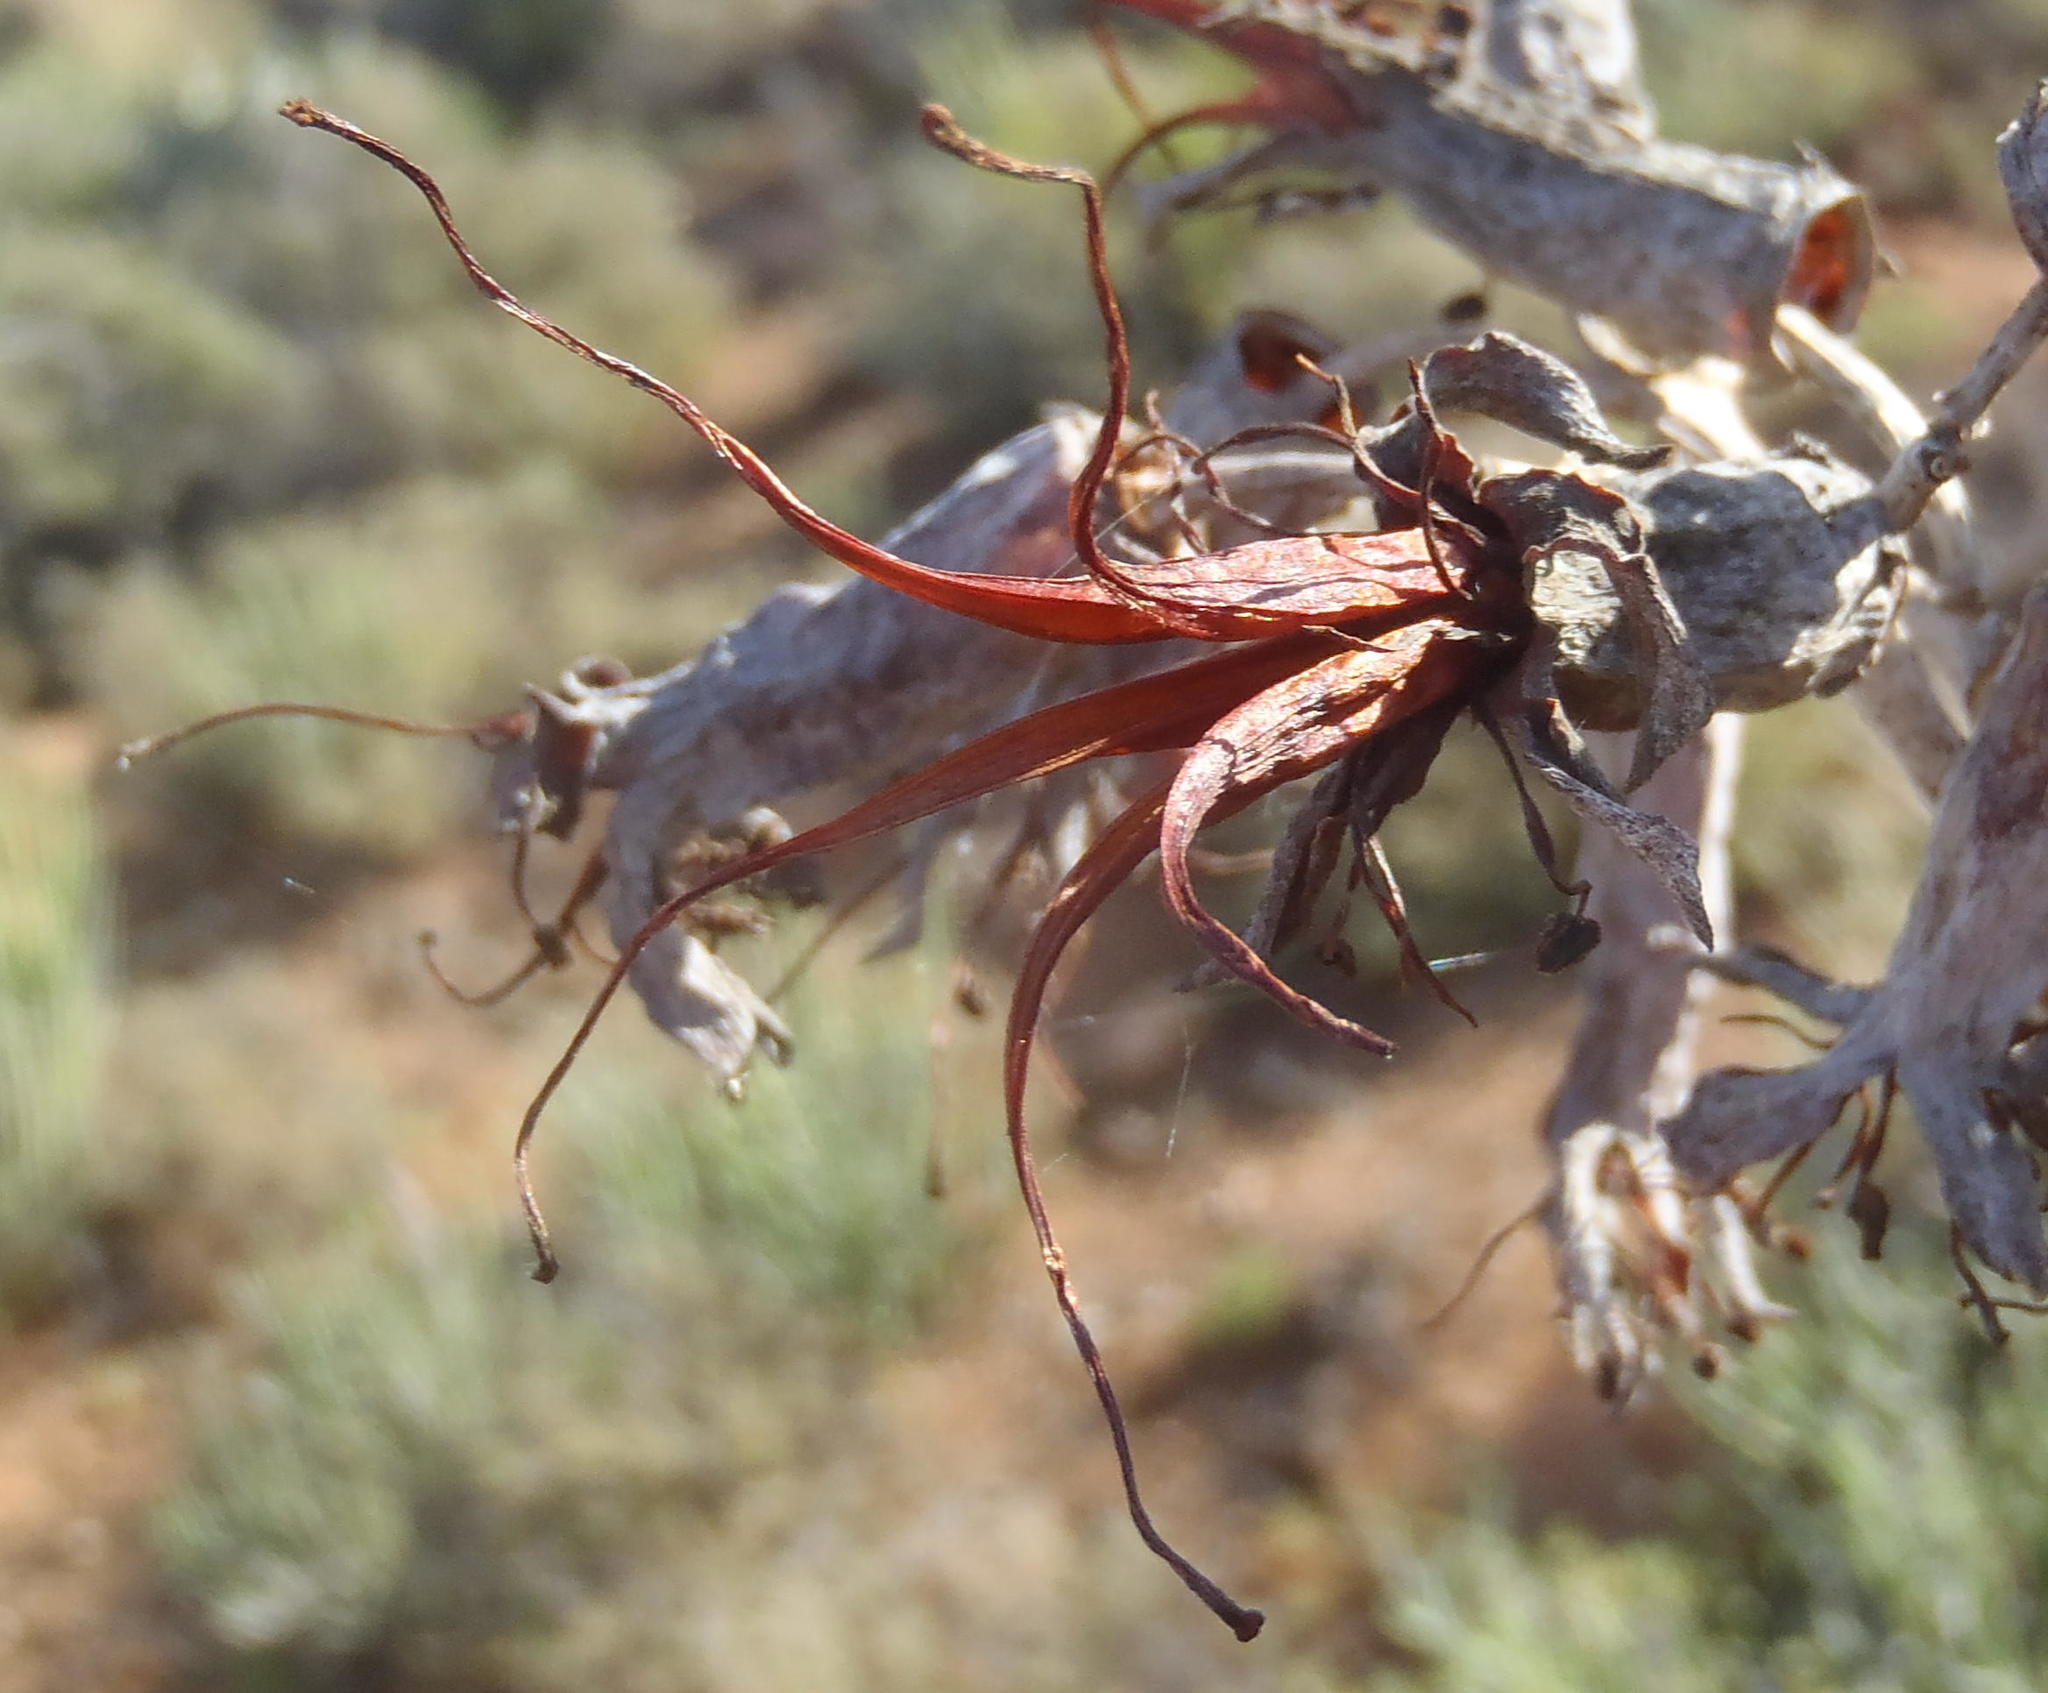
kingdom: Plantae
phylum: Tracheophyta
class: Magnoliopsida
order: Saxifragales
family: Crassulaceae
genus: Cotyledon
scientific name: Cotyledon orbiculata
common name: Pig's ear
